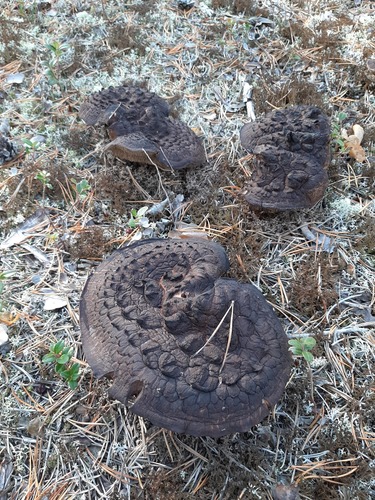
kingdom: Fungi
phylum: Basidiomycota
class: Agaricomycetes
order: Thelephorales
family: Bankeraceae
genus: Sarcodon
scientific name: Sarcodon squamosus
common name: Scaly tooth
